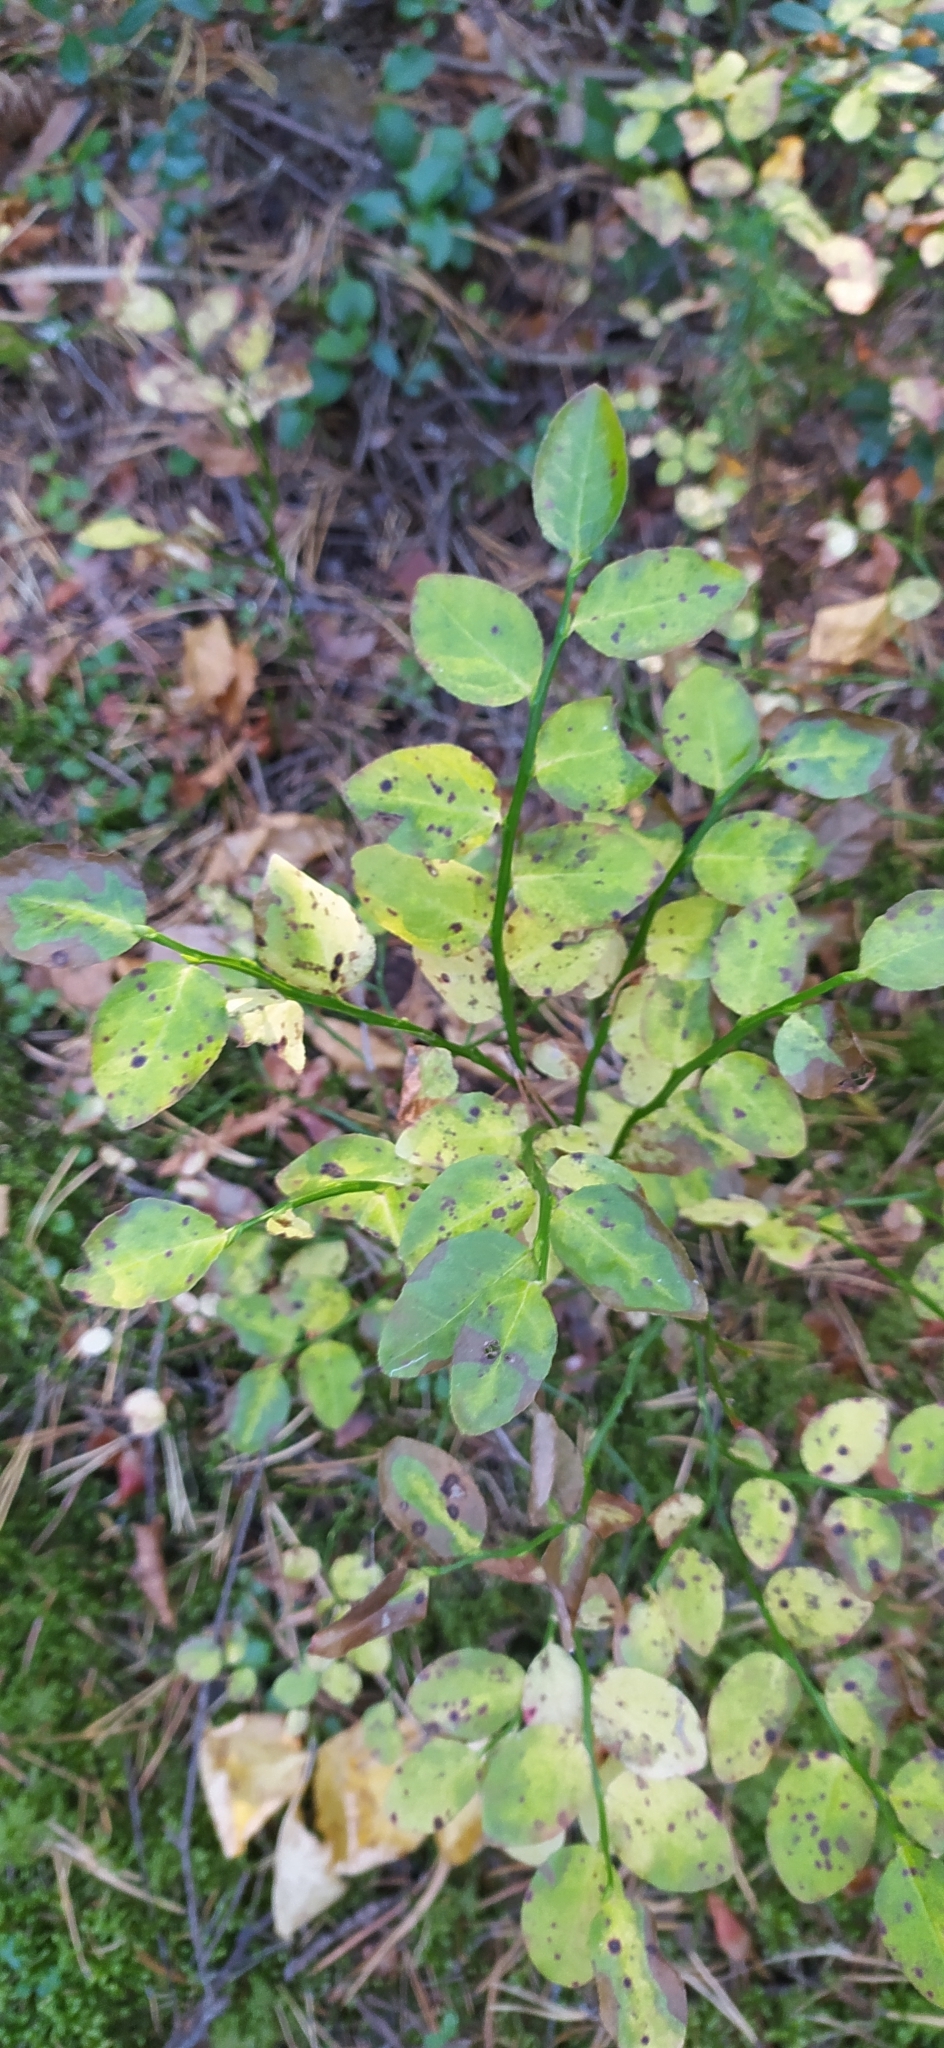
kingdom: Plantae
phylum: Tracheophyta
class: Magnoliopsida
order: Ericales
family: Ericaceae
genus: Vaccinium
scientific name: Vaccinium myrtillus
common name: Bilberry
